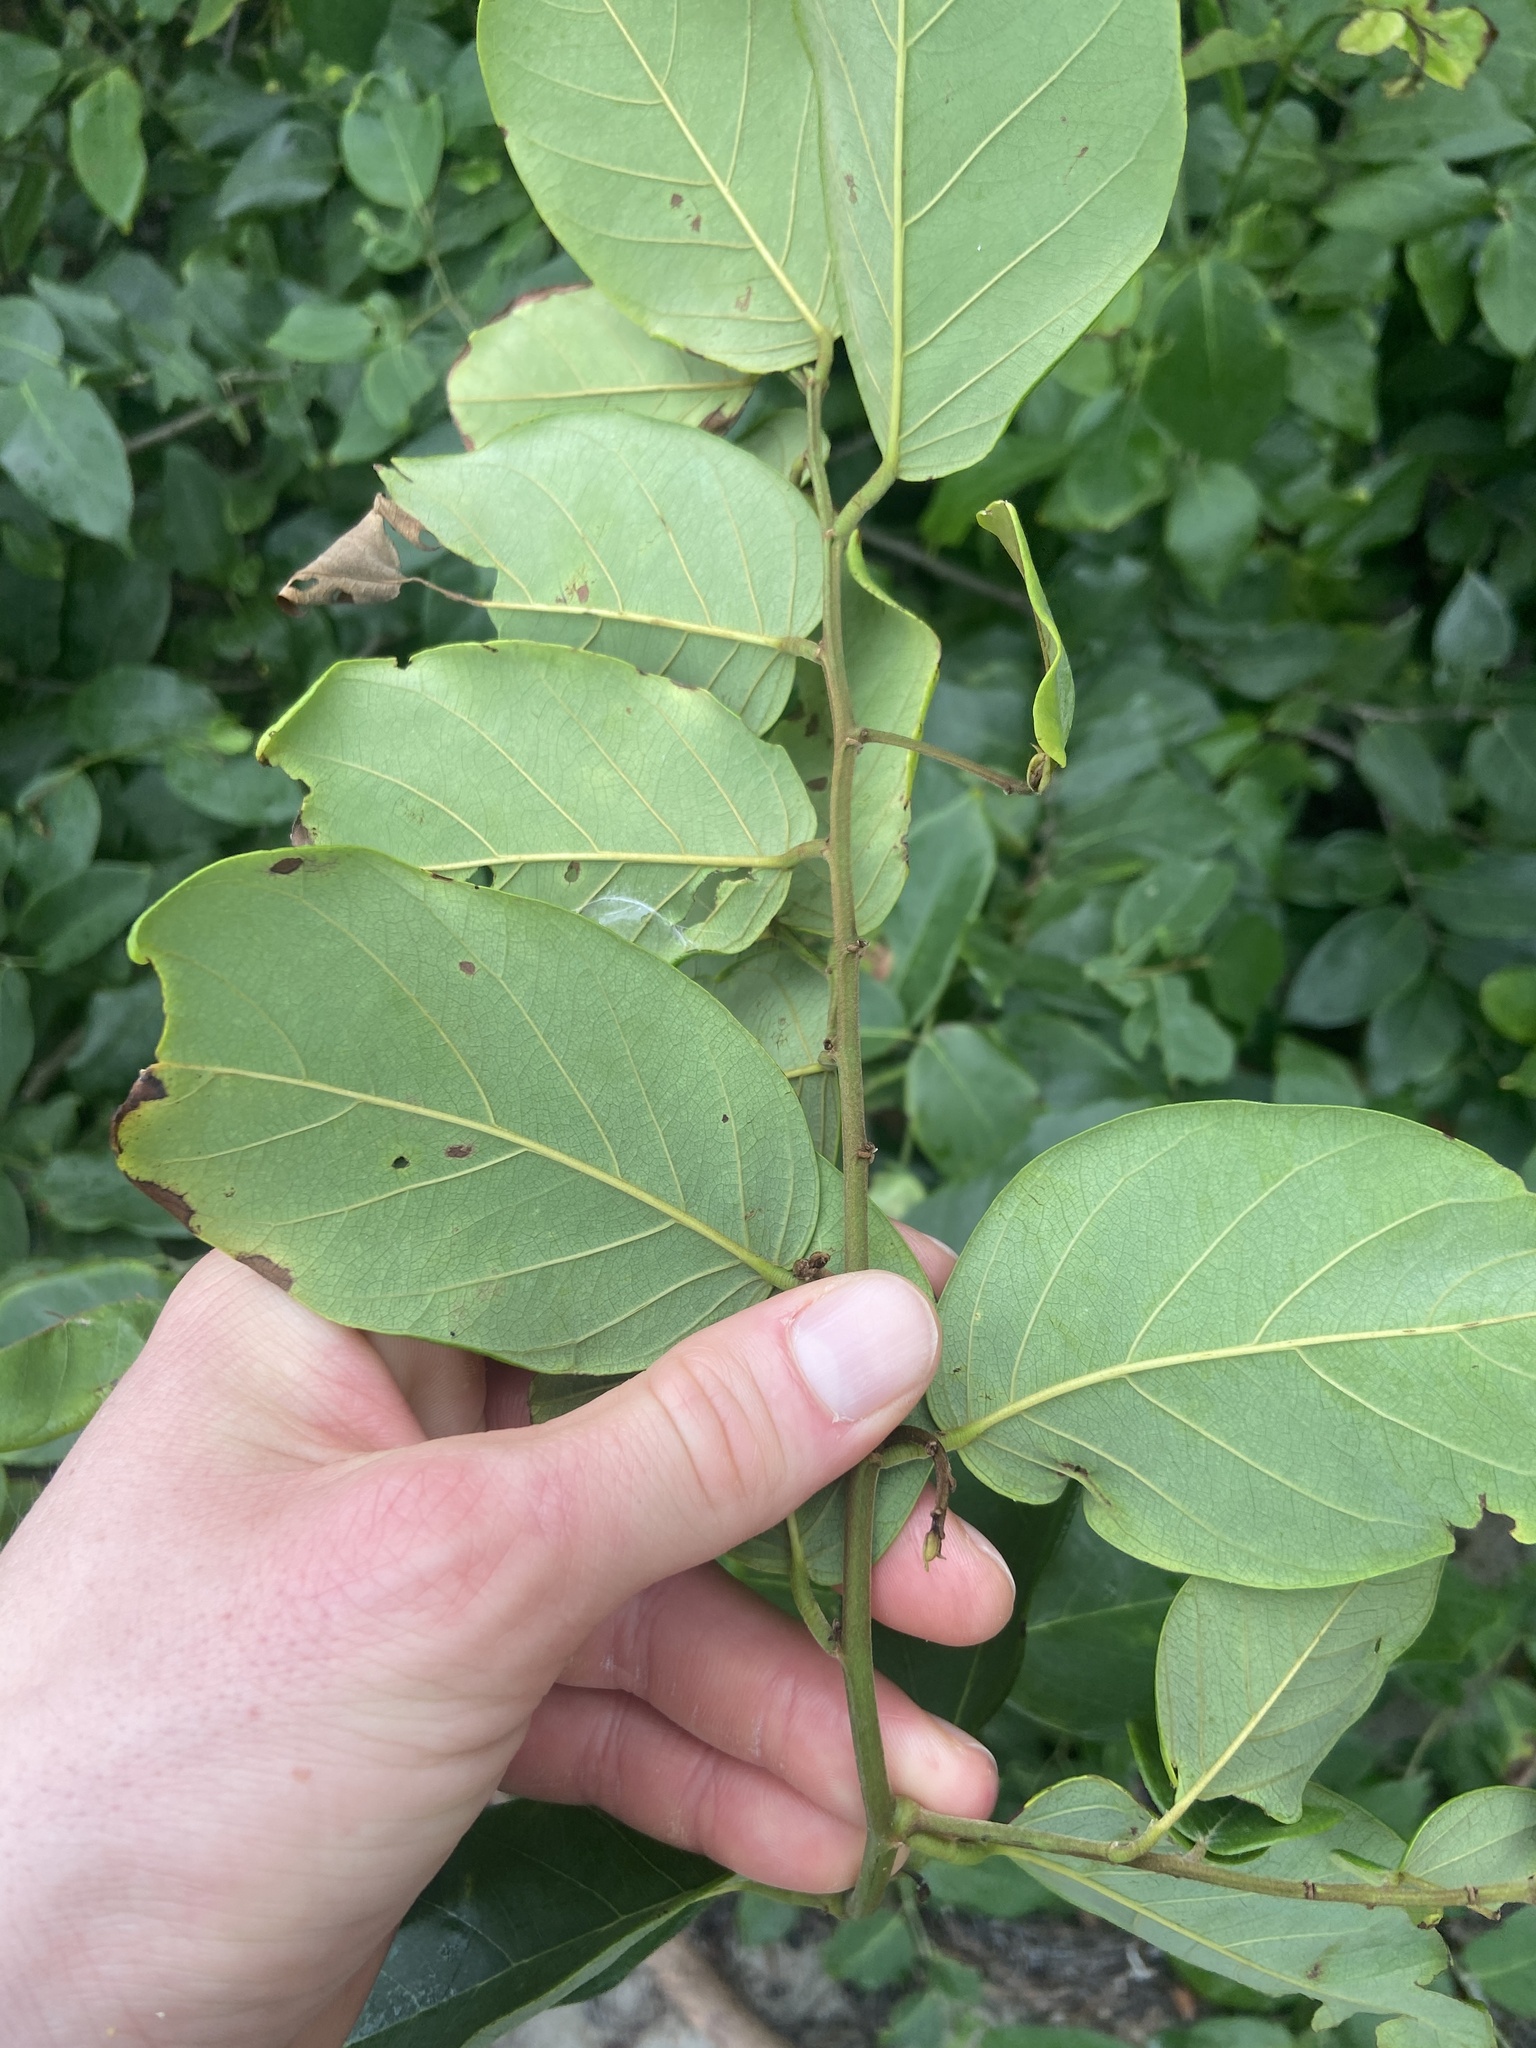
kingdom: Plantae
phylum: Tracheophyta
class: Magnoliopsida
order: Fabales
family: Fabaceae
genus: Dalbergia
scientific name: Dalbergia ecastaphyllum
